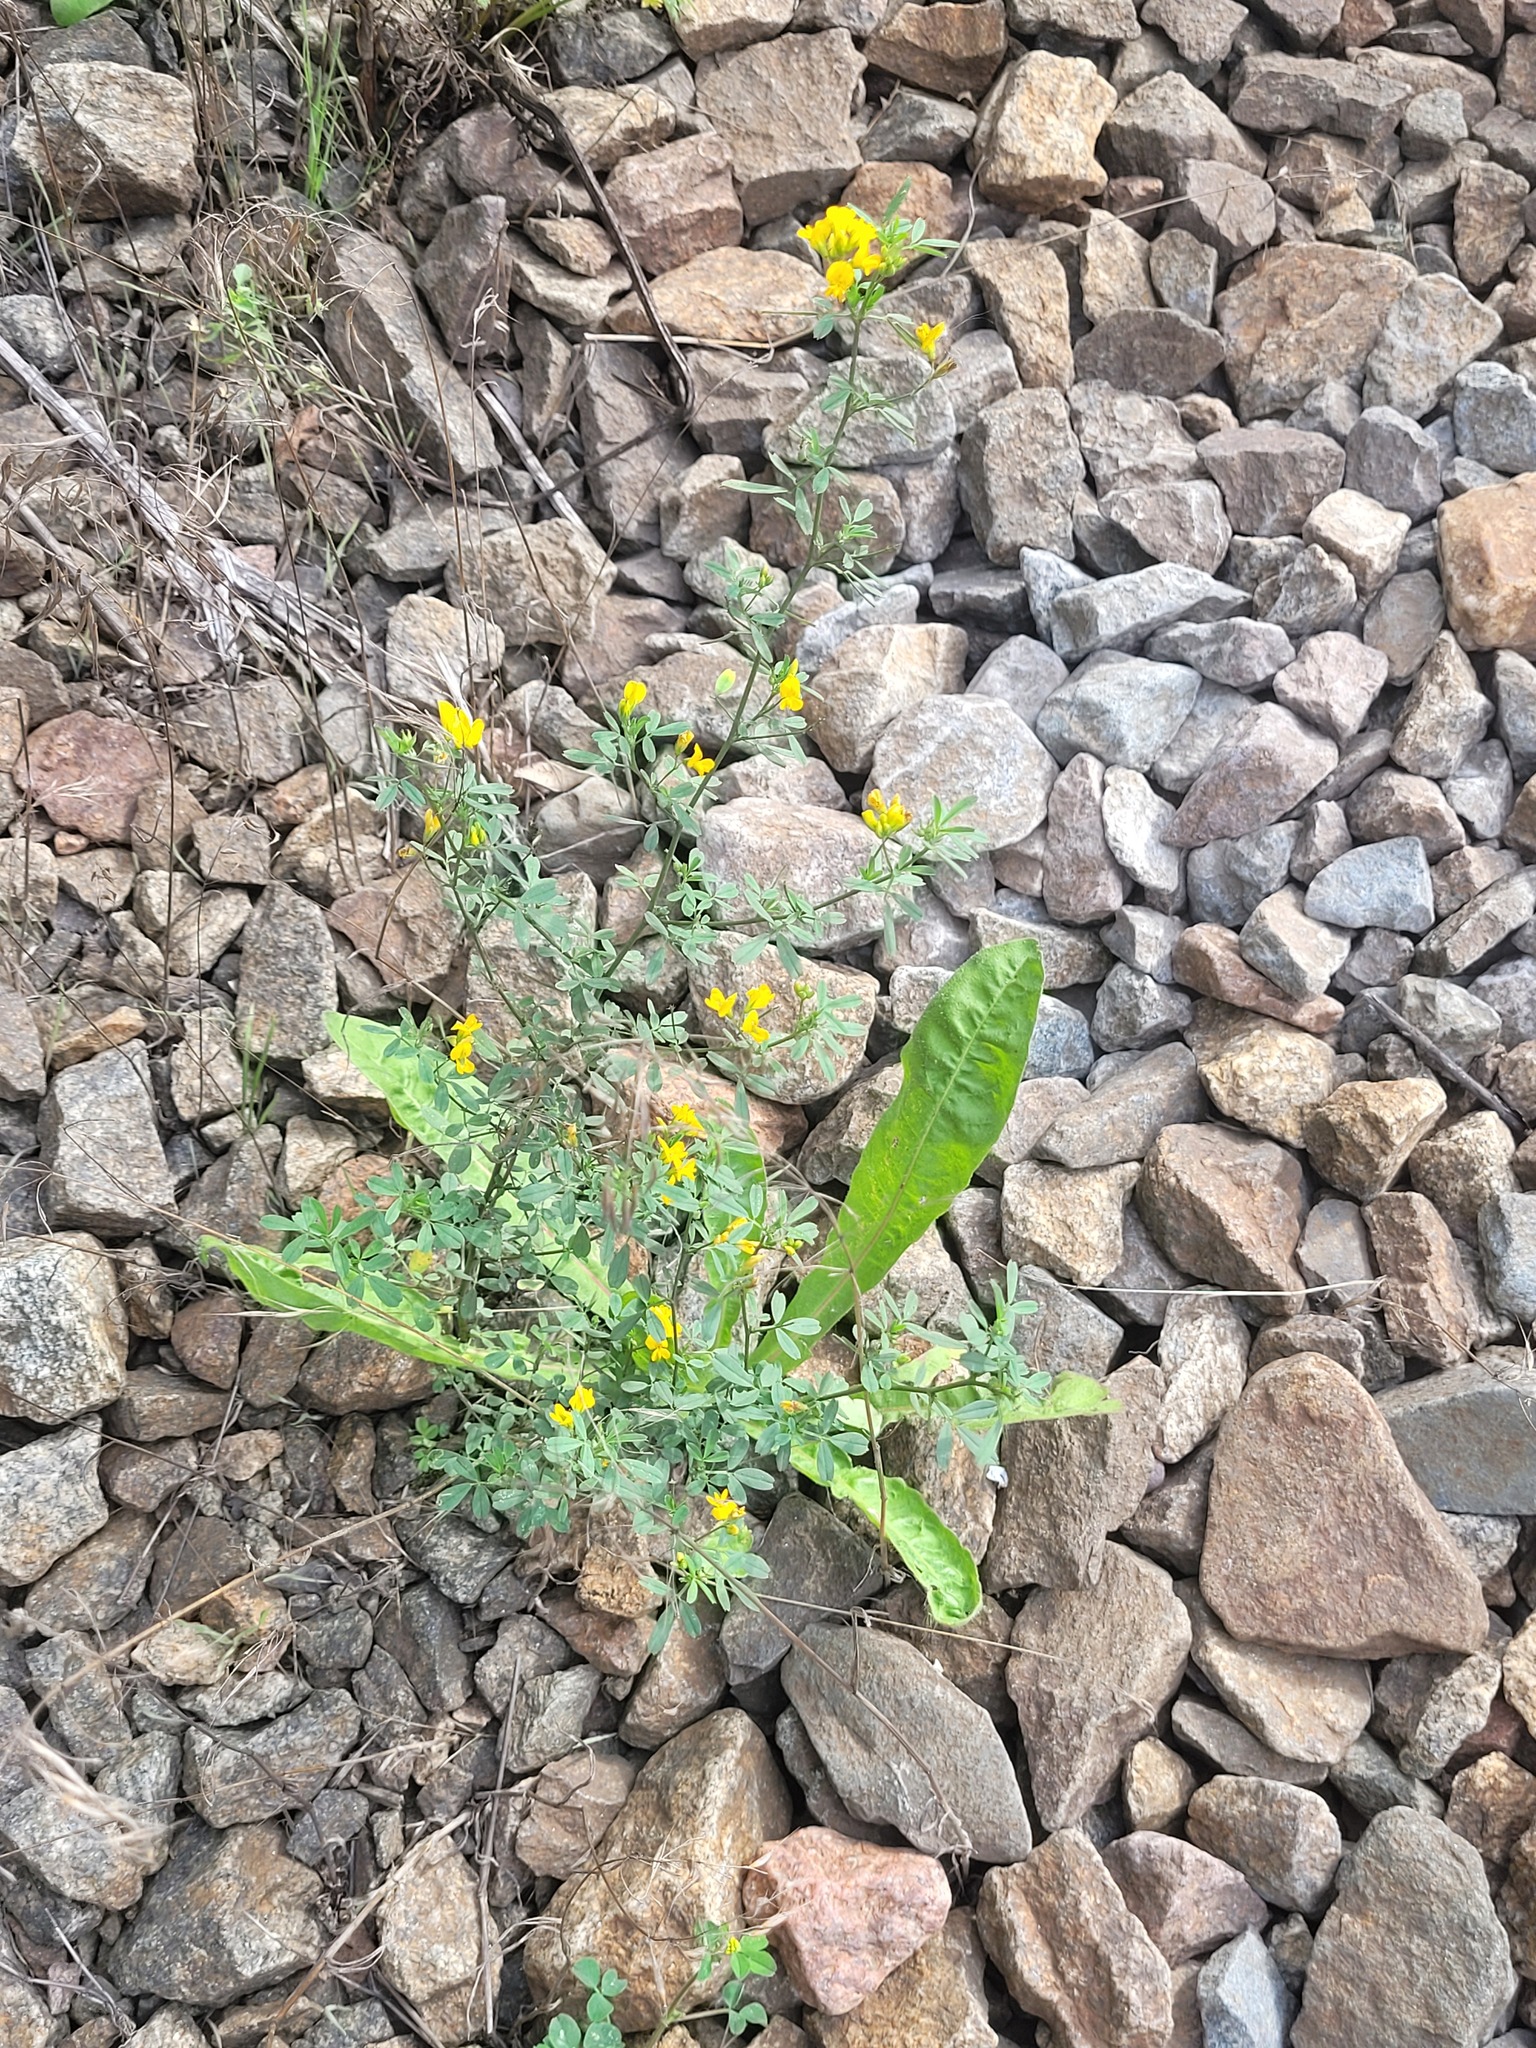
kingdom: Plantae
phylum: Tracheophyta
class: Magnoliopsida
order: Fabales
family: Fabaceae
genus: Medicago
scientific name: Medicago falcata
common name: Sickle medick
